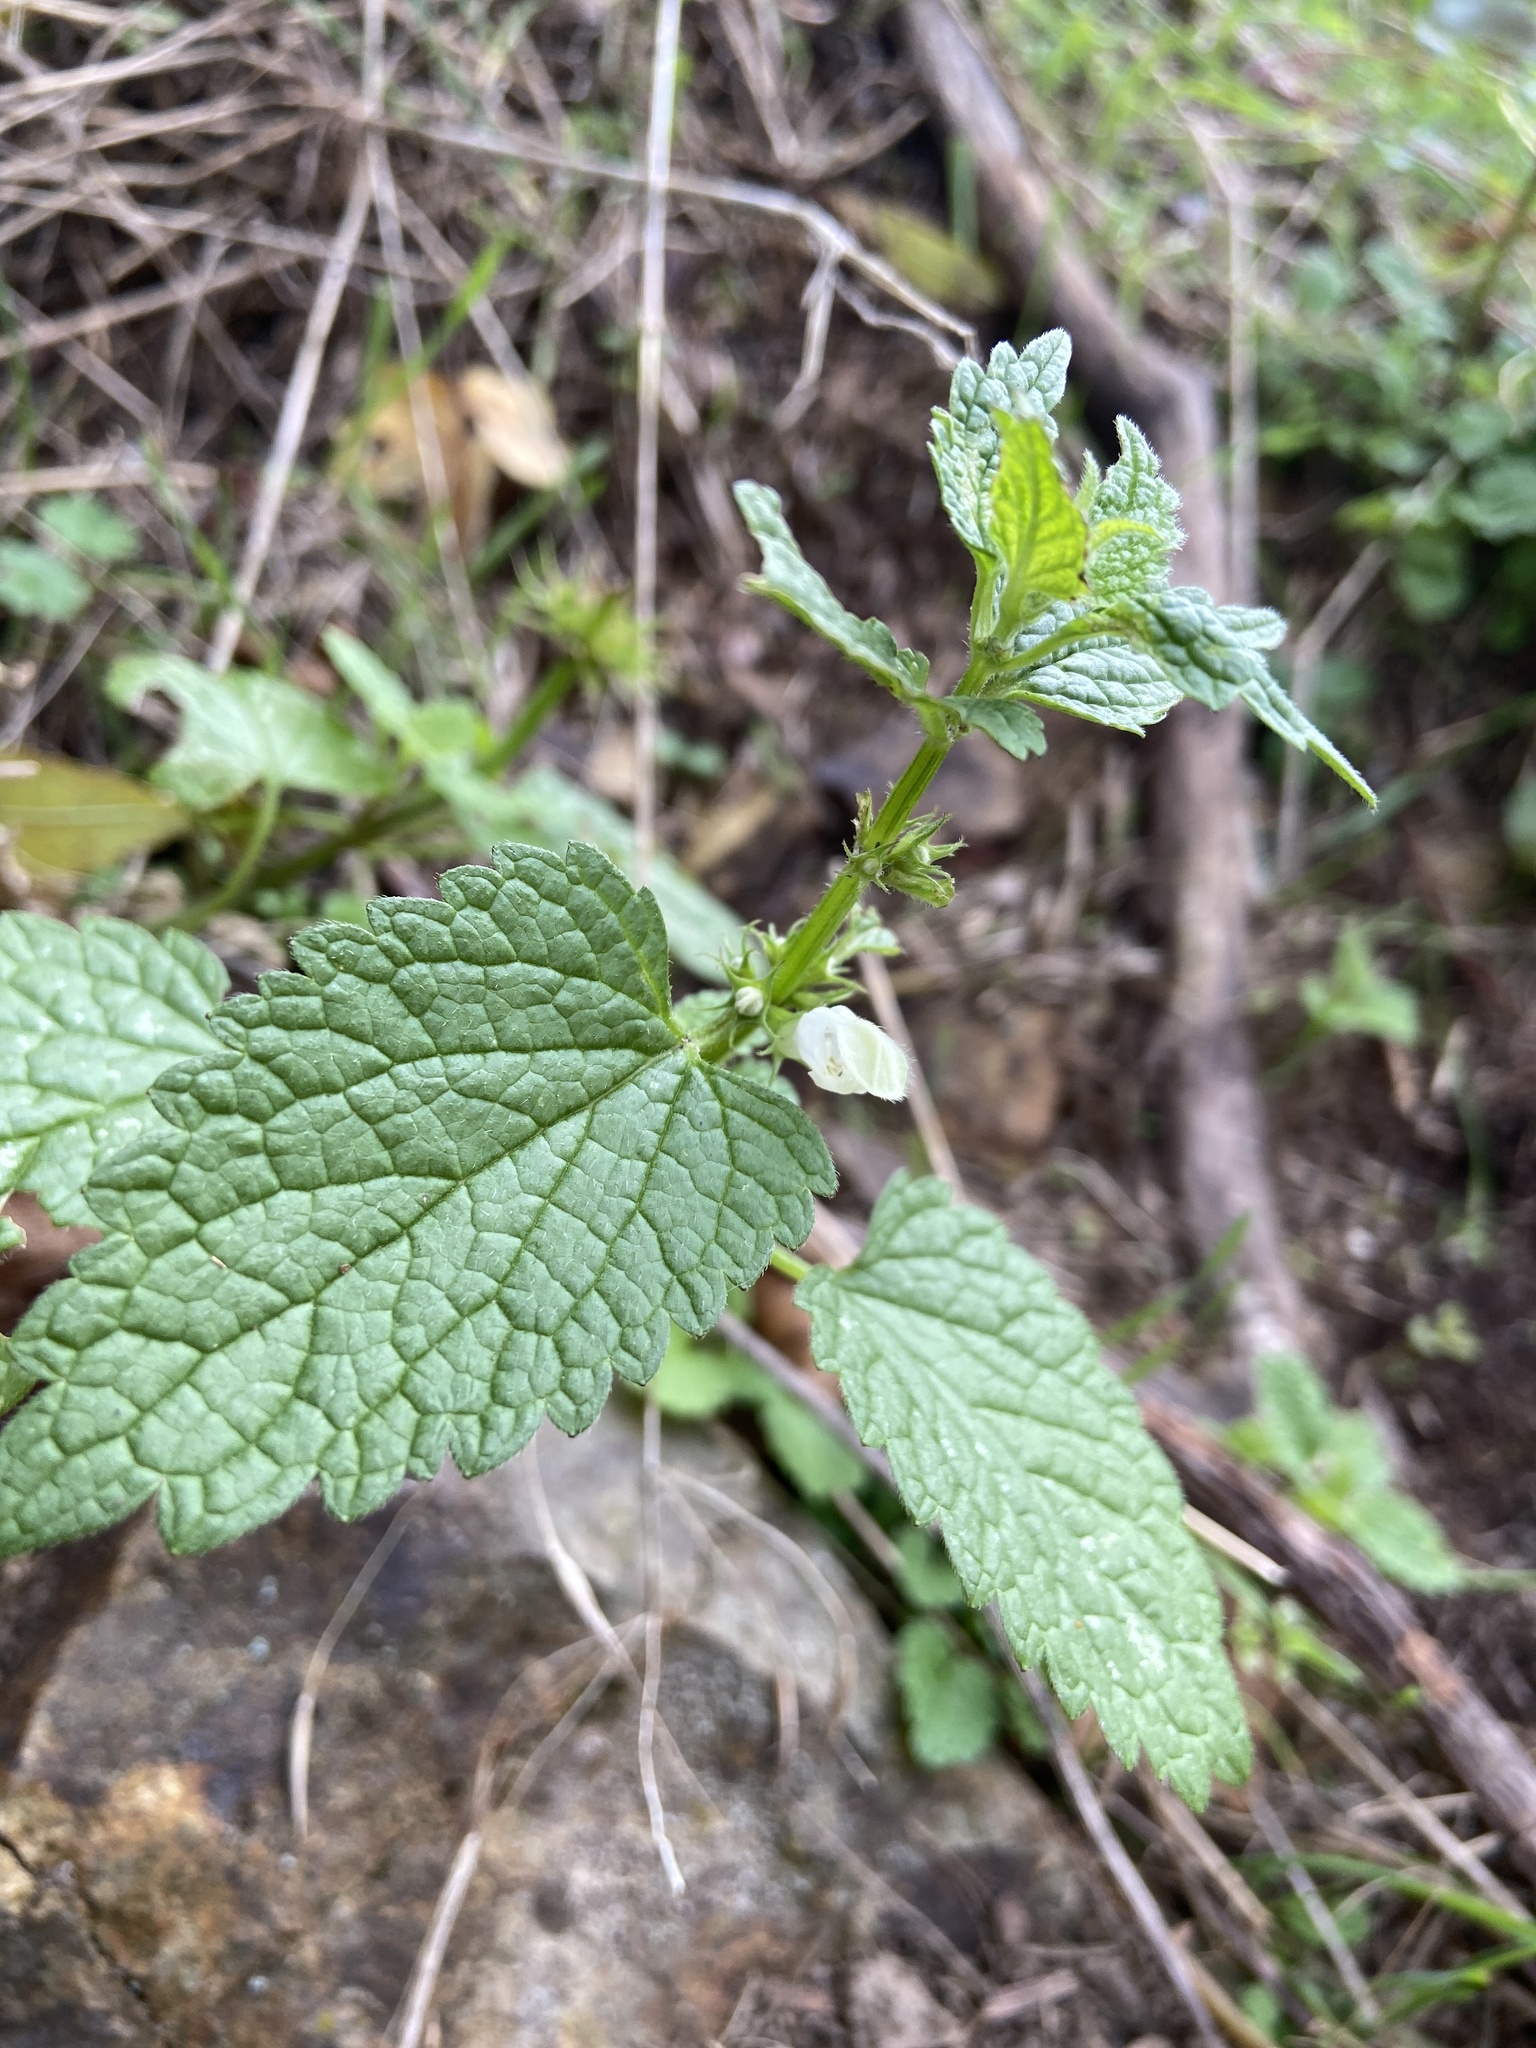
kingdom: Plantae
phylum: Tracheophyta
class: Magnoliopsida
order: Lamiales
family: Lamiaceae
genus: Lamium
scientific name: Lamium album
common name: White dead-nettle
